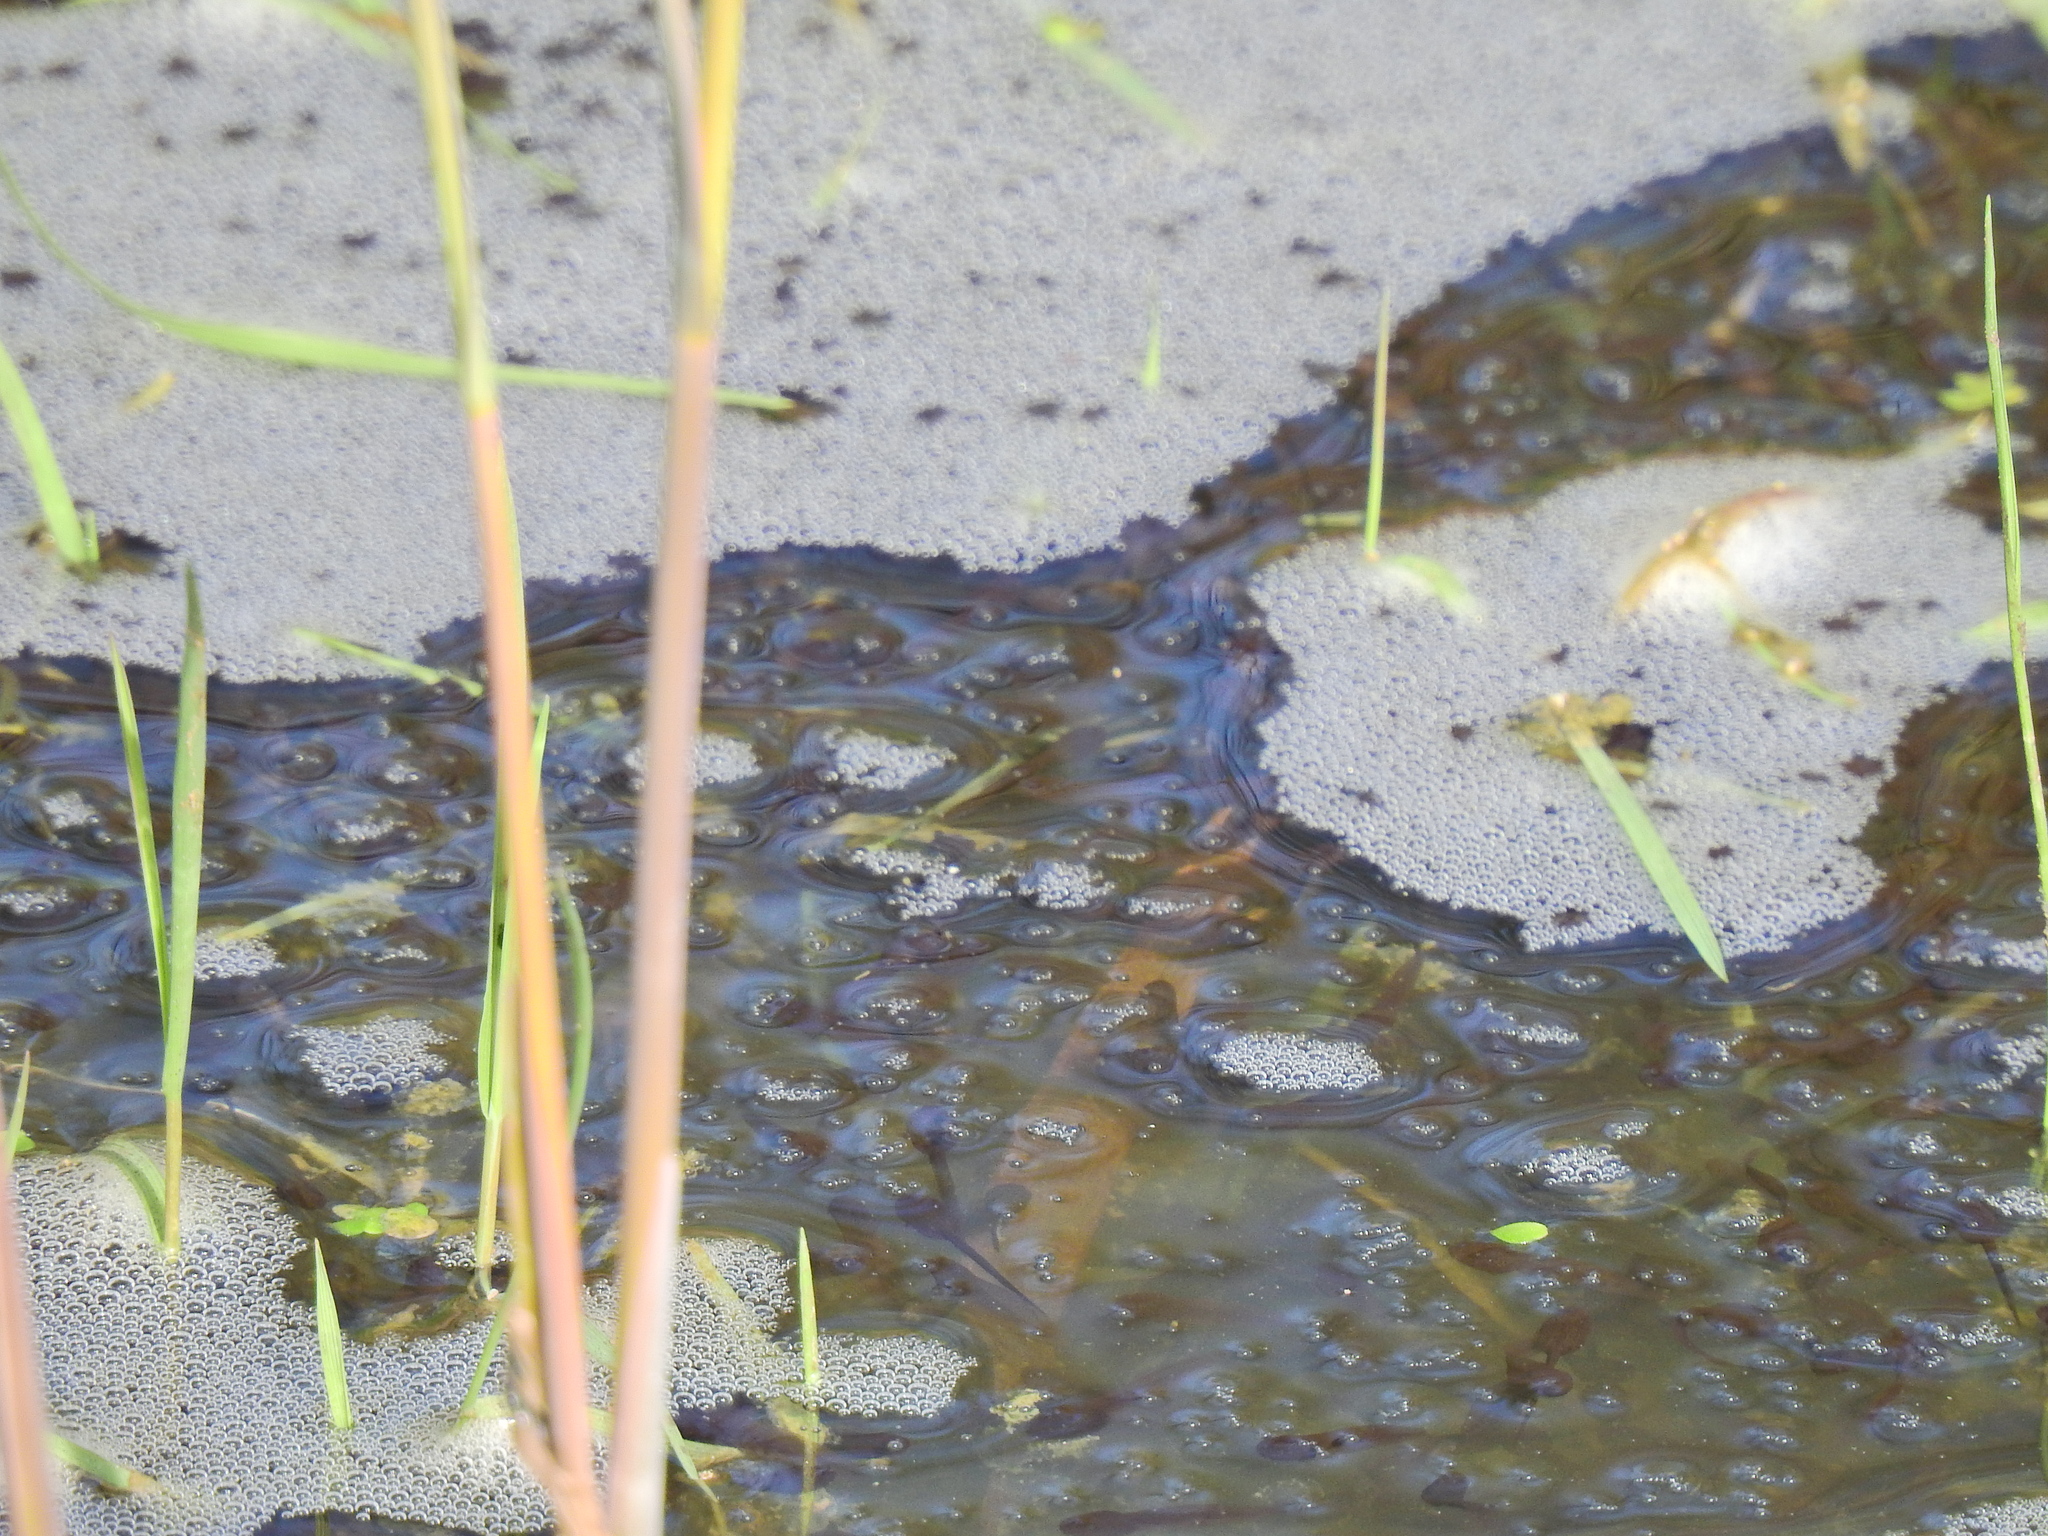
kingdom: Animalia
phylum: Chordata
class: Amphibia
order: Anura
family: Ranidae
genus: Rana
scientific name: Rana temporaria
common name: Common frog
